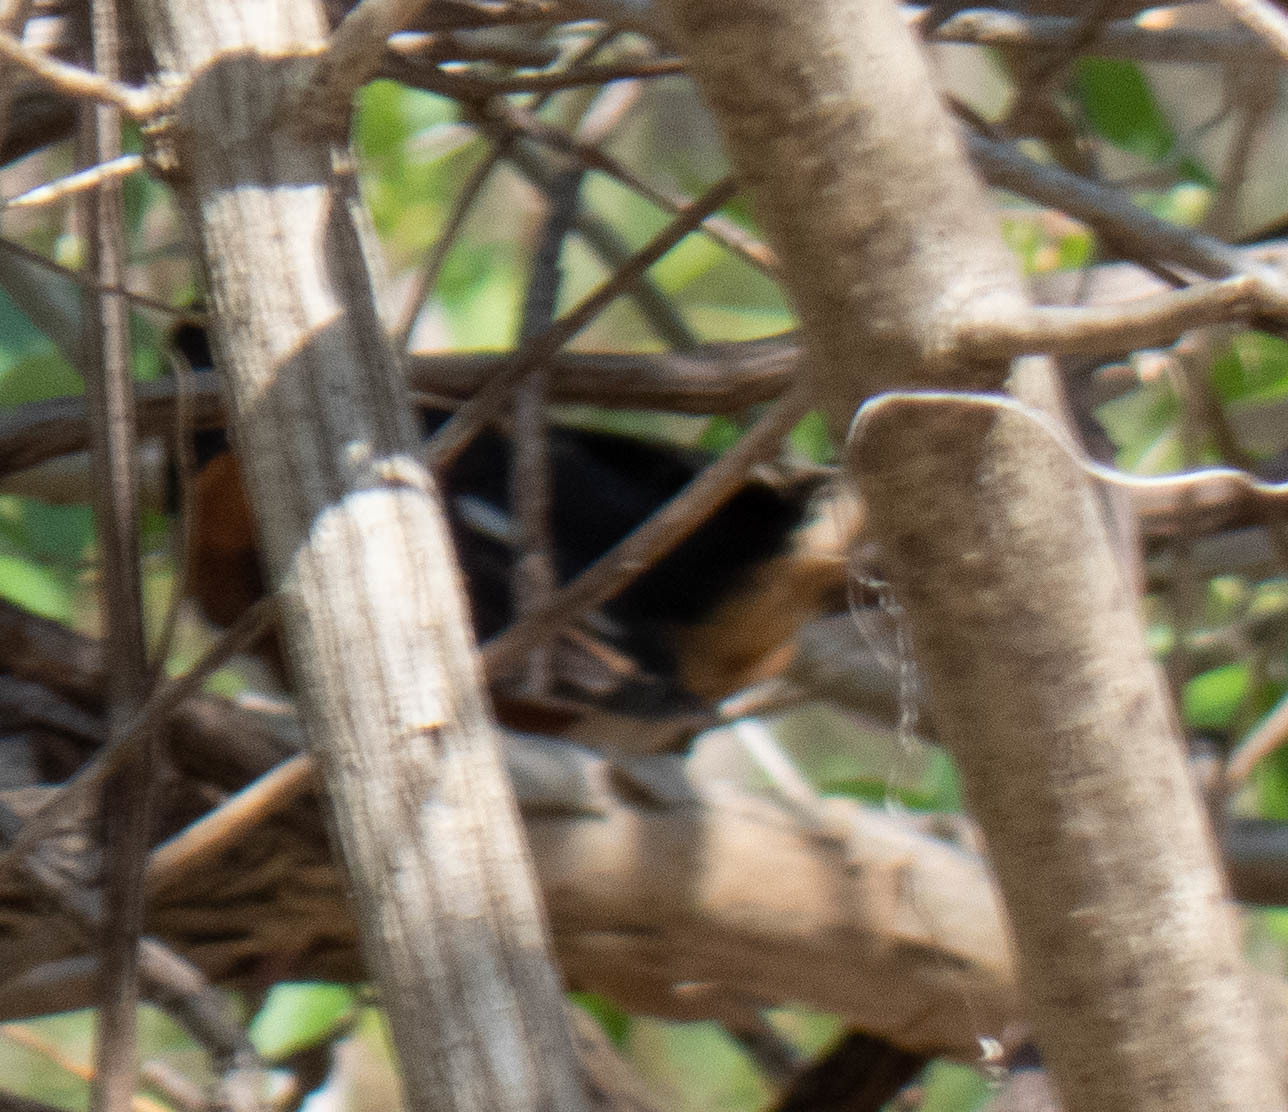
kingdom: Animalia
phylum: Chordata
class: Aves
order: Passeriformes
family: Passerellidae
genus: Pipilo
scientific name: Pipilo erythrophthalmus
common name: Eastern towhee
